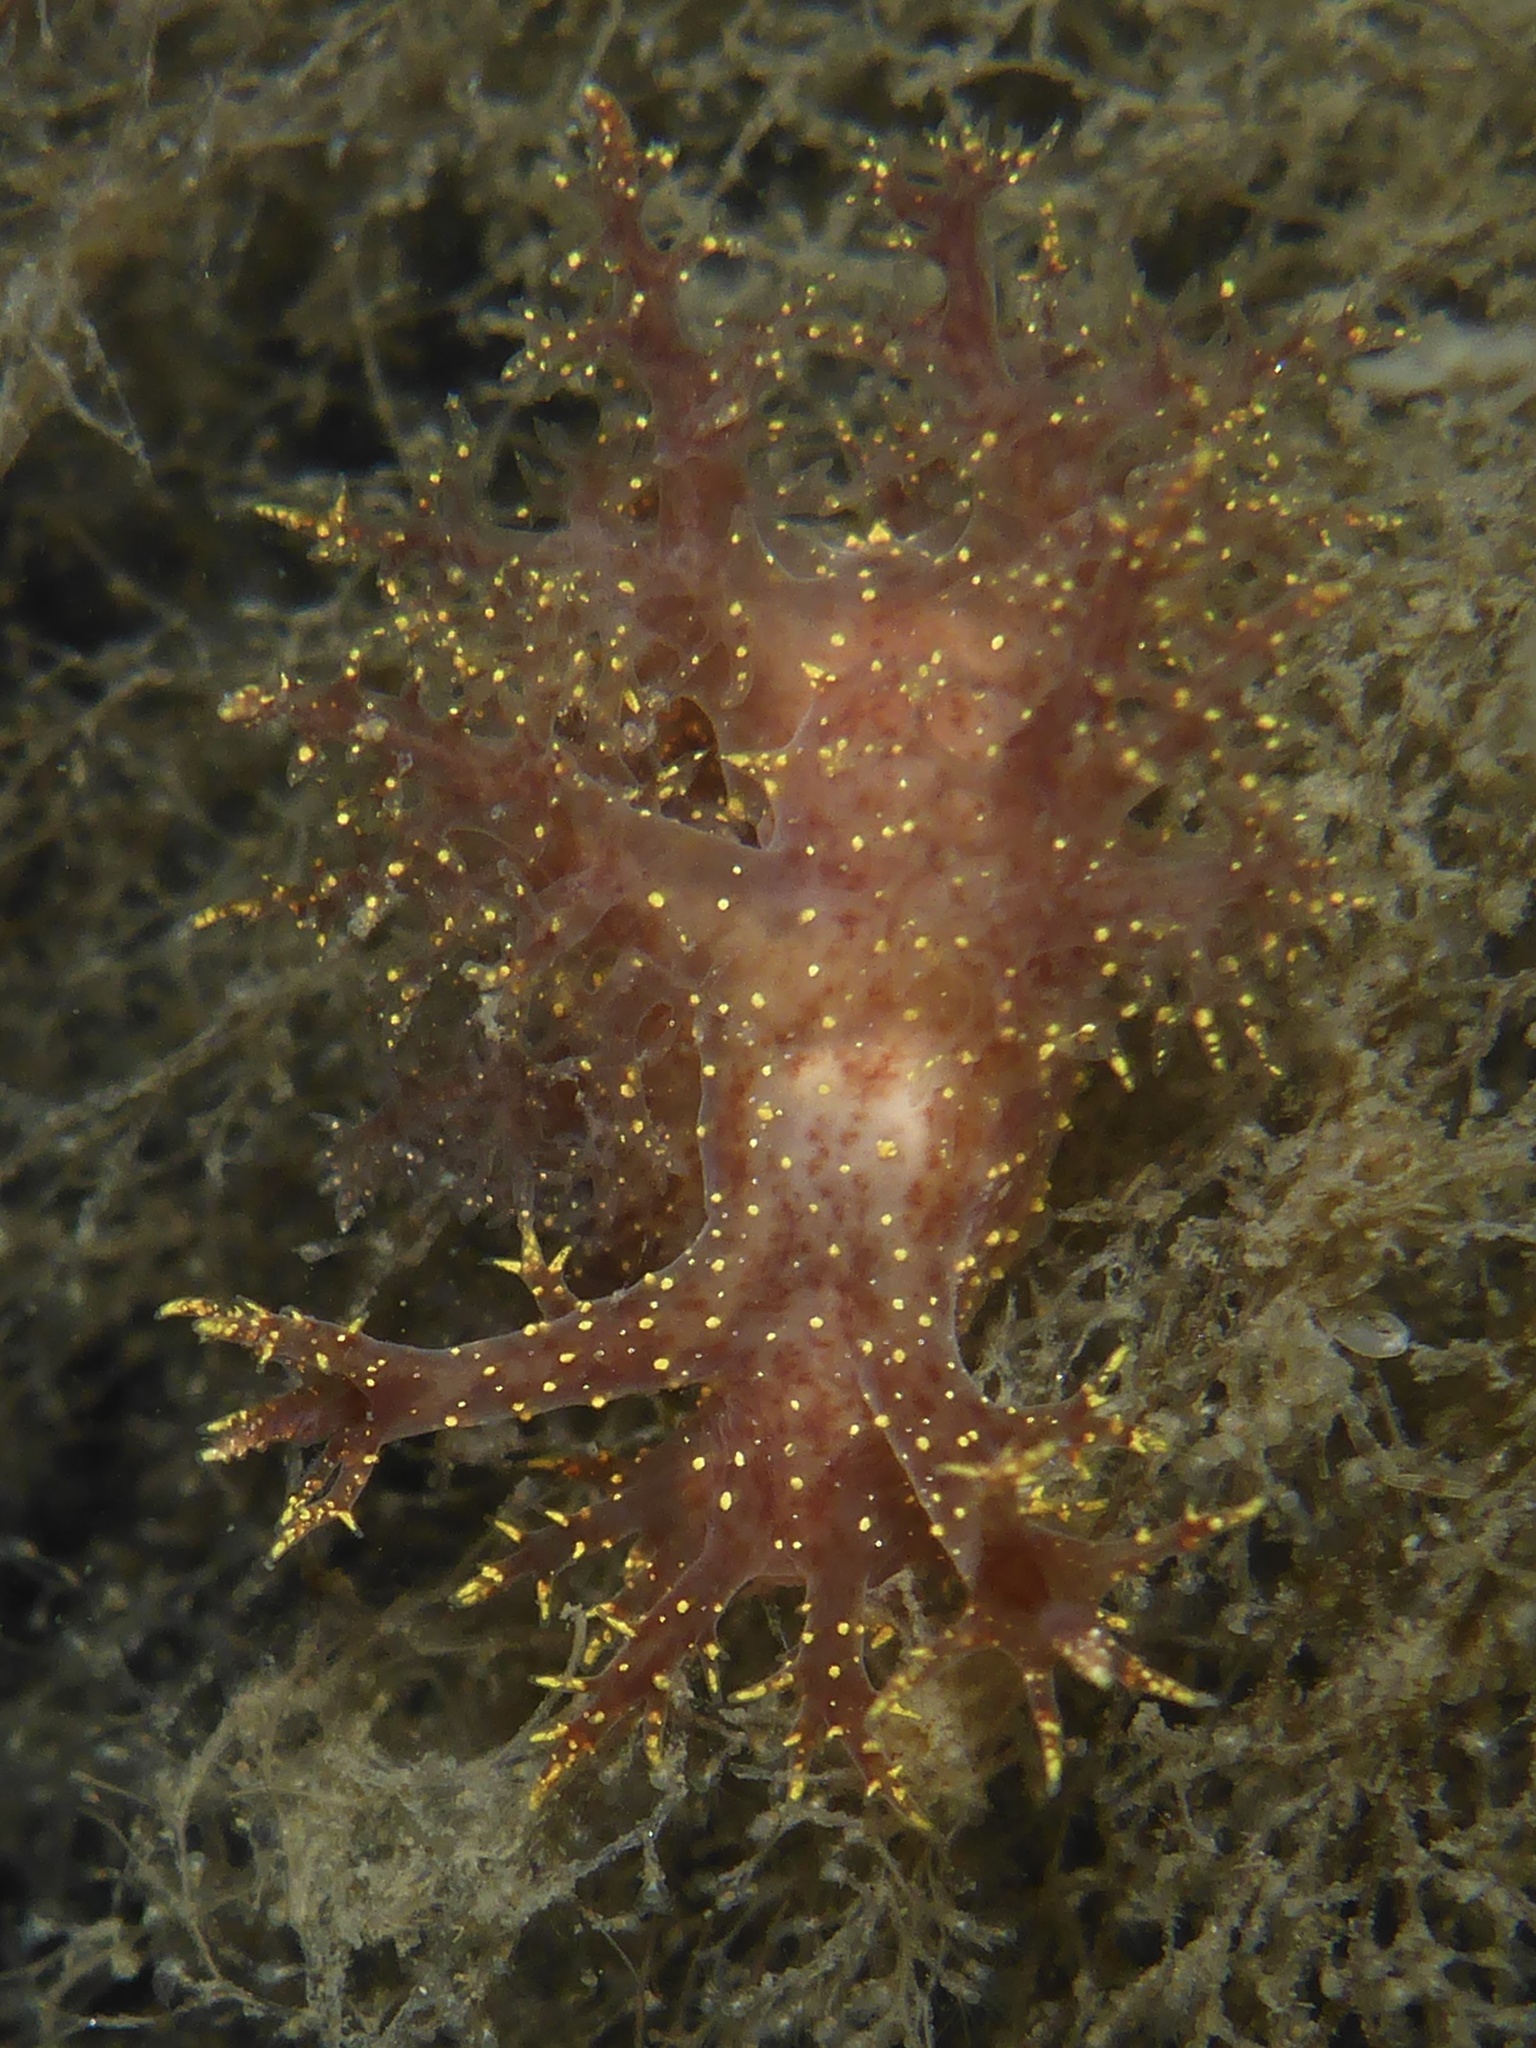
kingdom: Animalia
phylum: Mollusca
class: Gastropoda
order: Nudibranchia
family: Dendronotidae
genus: Dendronotus
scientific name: Dendronotus venustus
